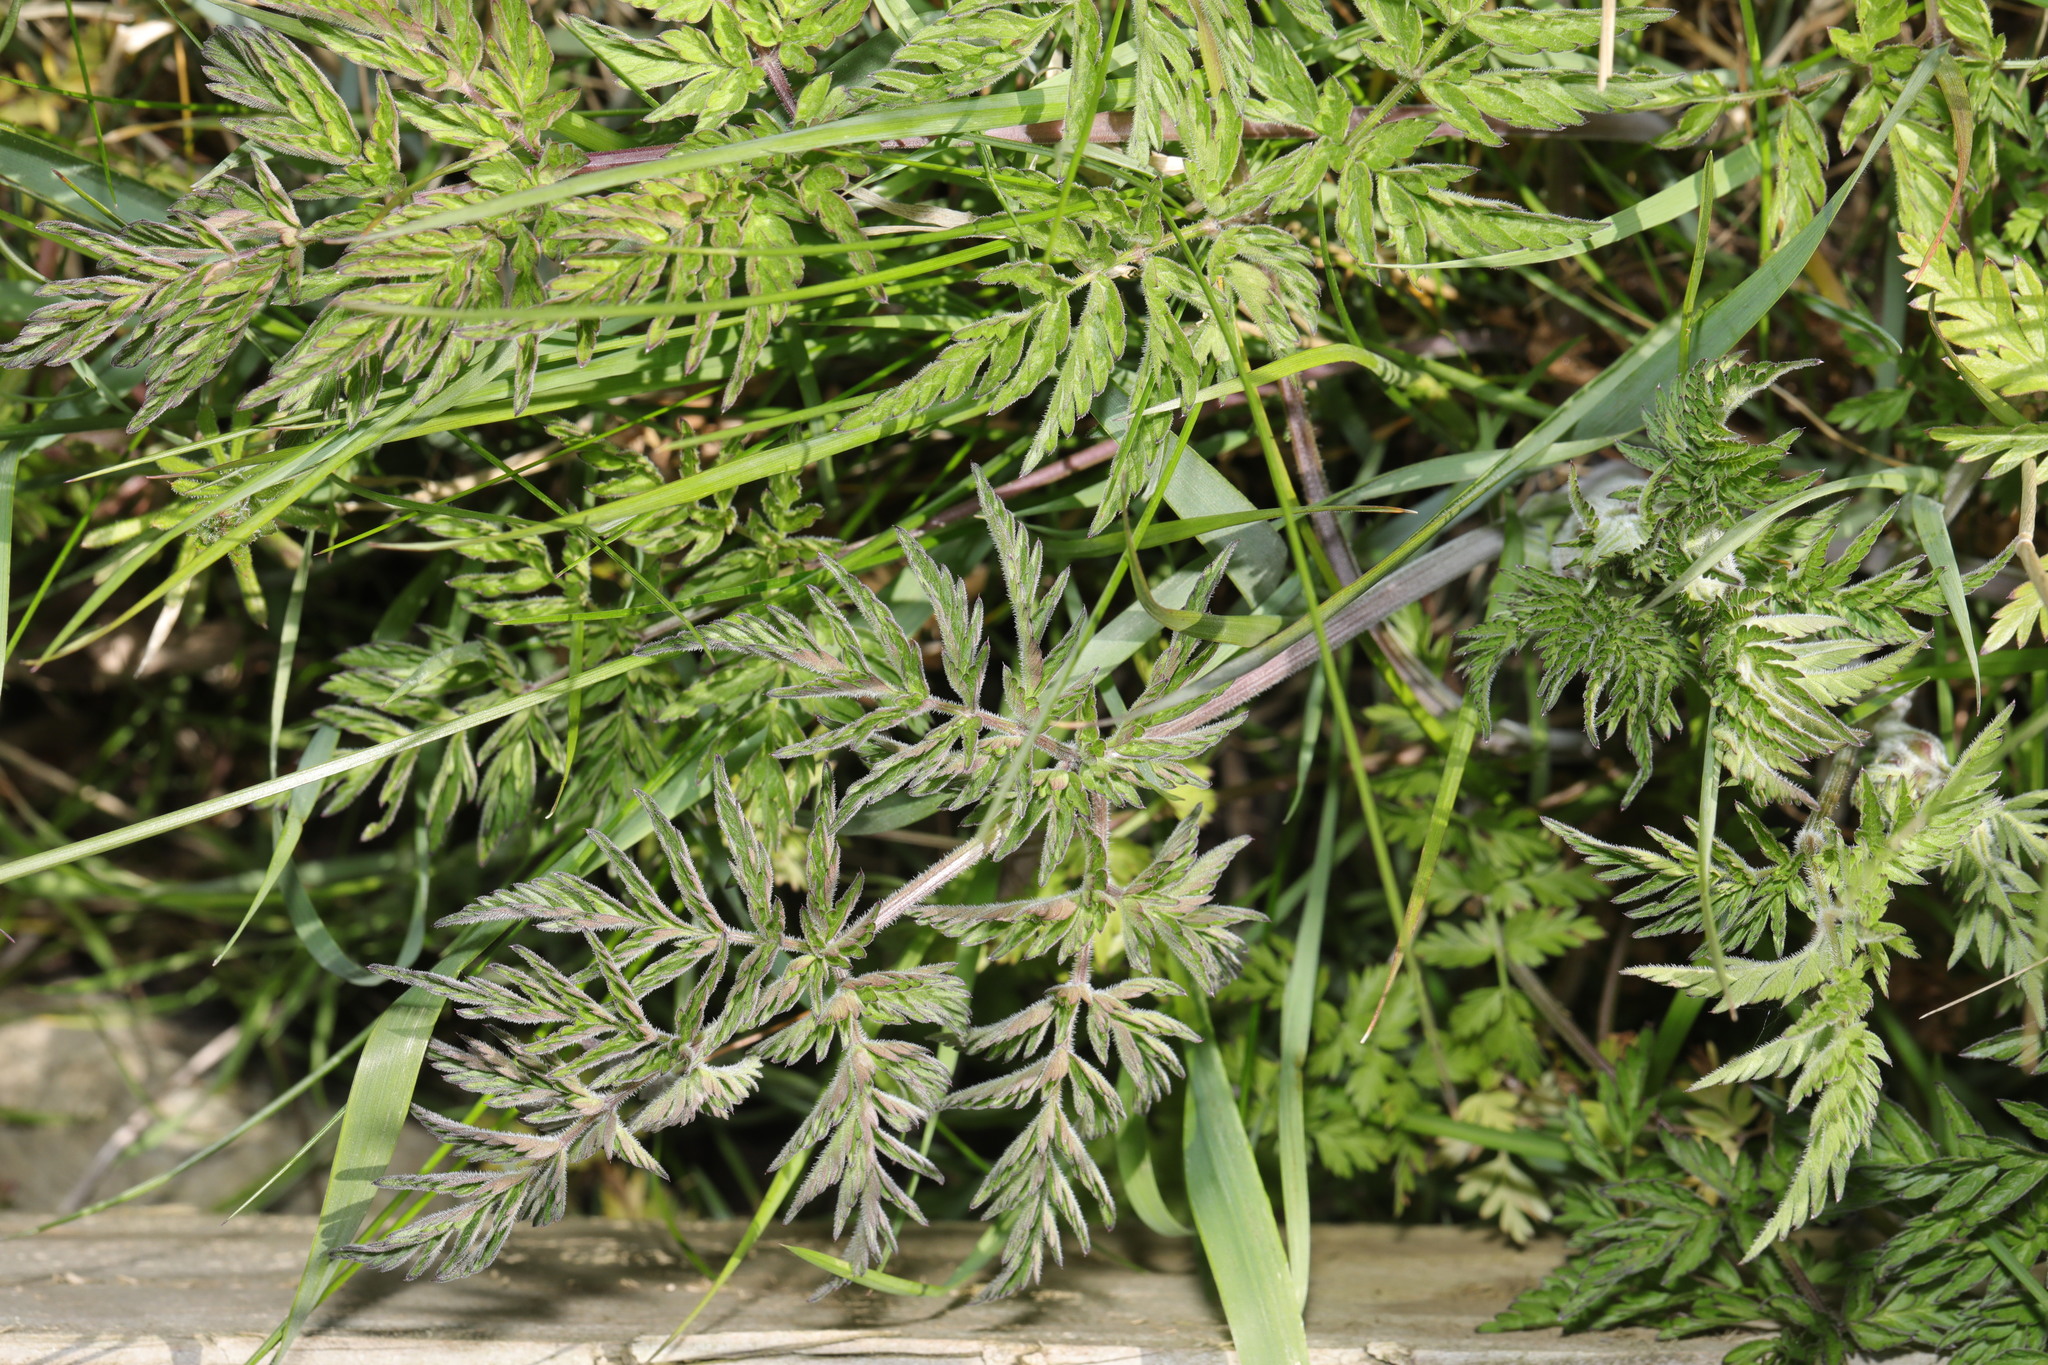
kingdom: Plantae
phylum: Tracheophyta
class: Magnoliopsida
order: Apiales
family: Apiaceae
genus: Anthriscus
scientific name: Anthriscus sylvestris
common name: Cow parsley
